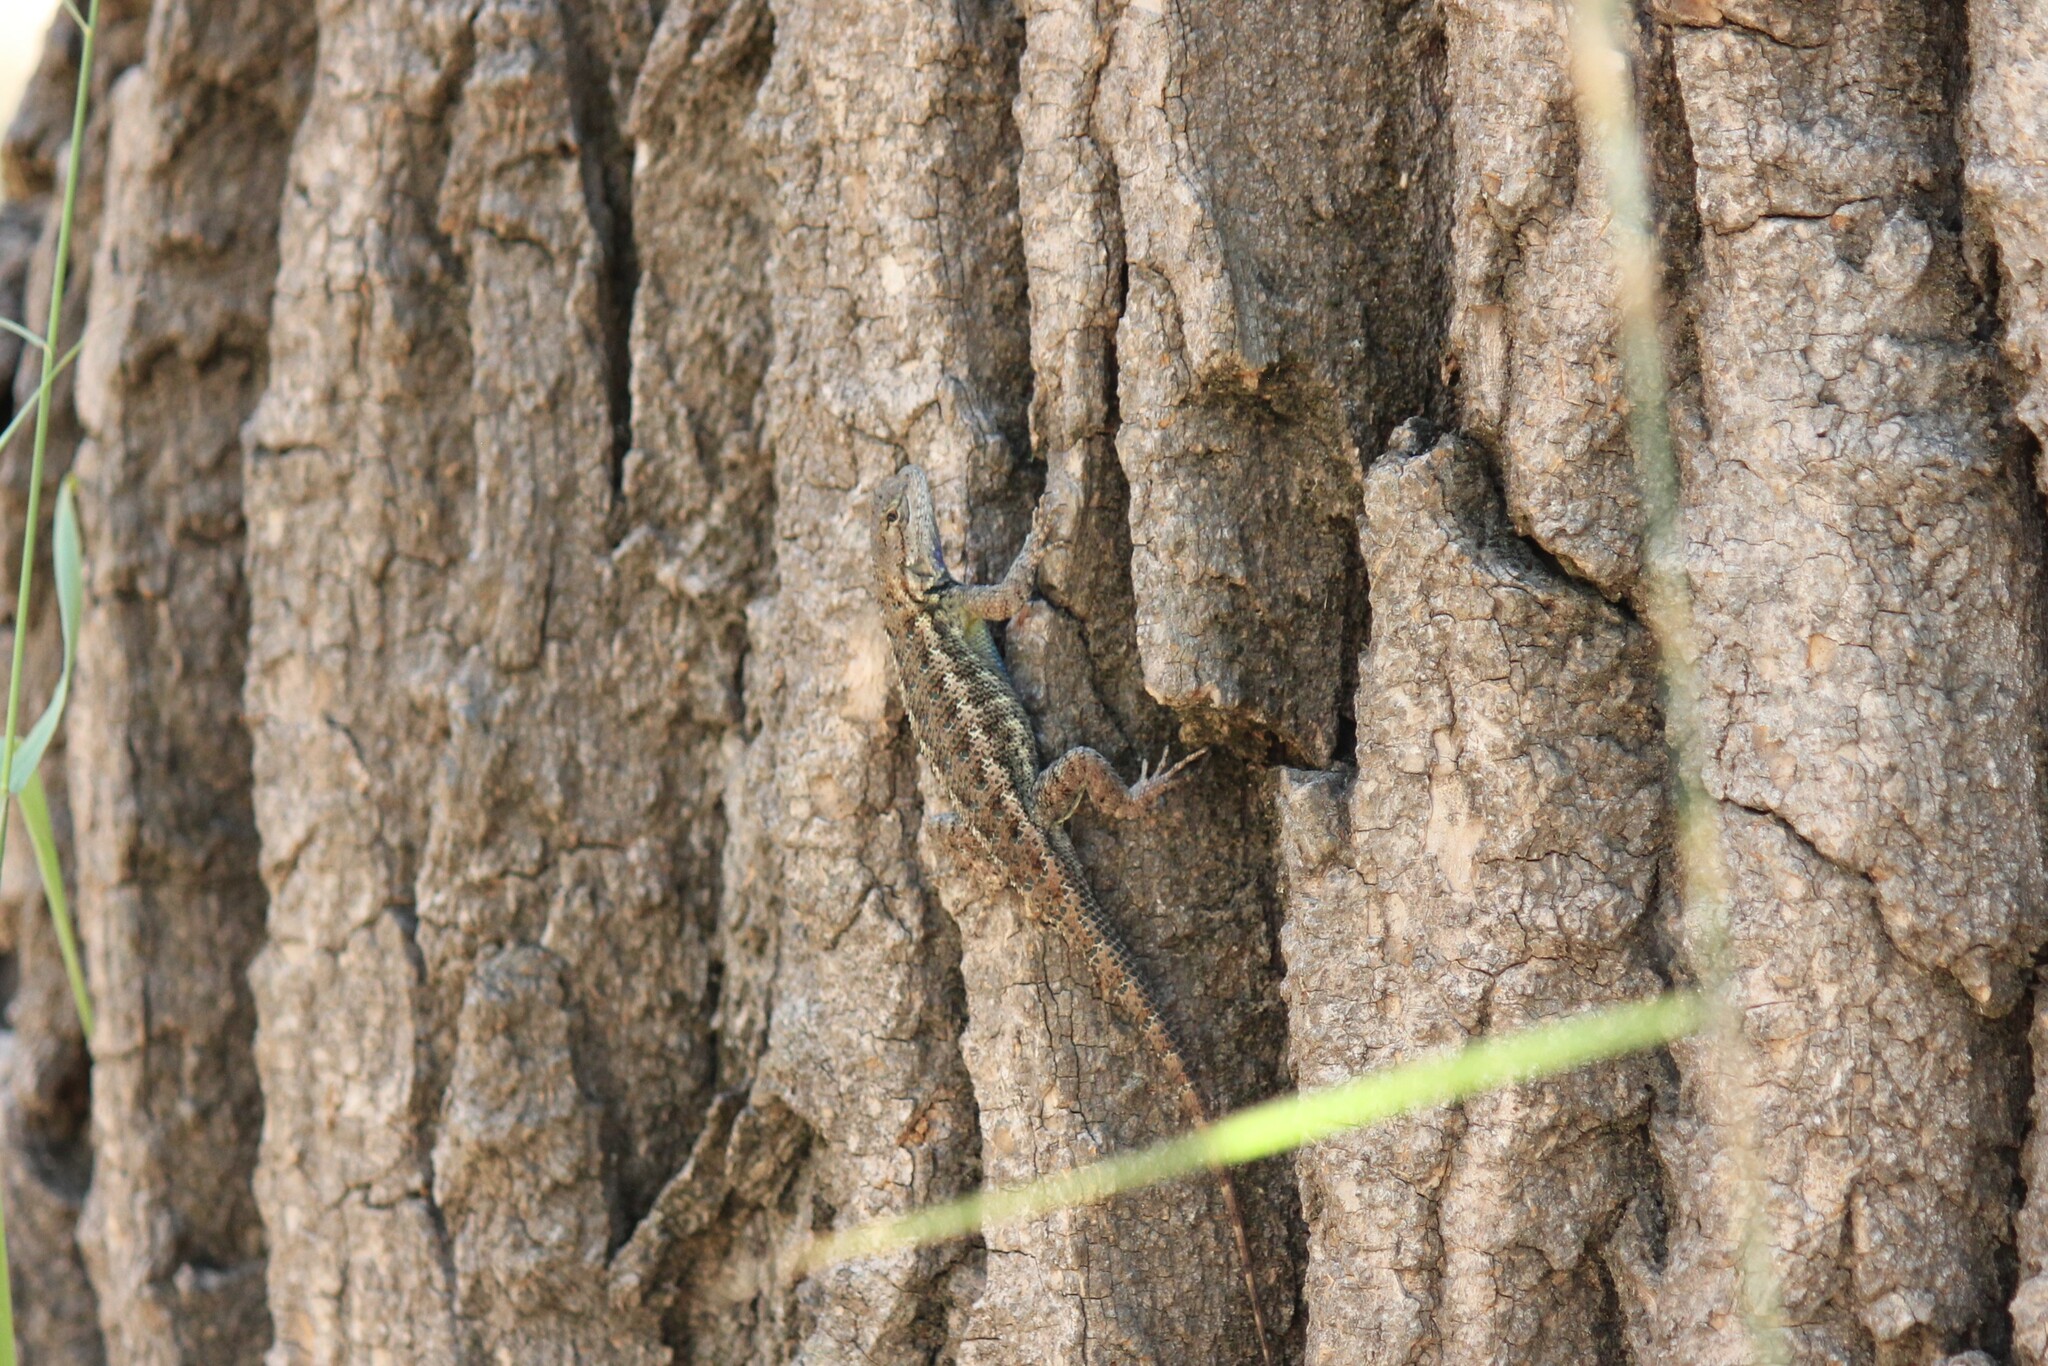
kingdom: Animalia
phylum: Chordata
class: Squamata
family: Phrynosomatidae
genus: Sceloporus
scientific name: Sceloporus occidentalis
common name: Western fence lizard
